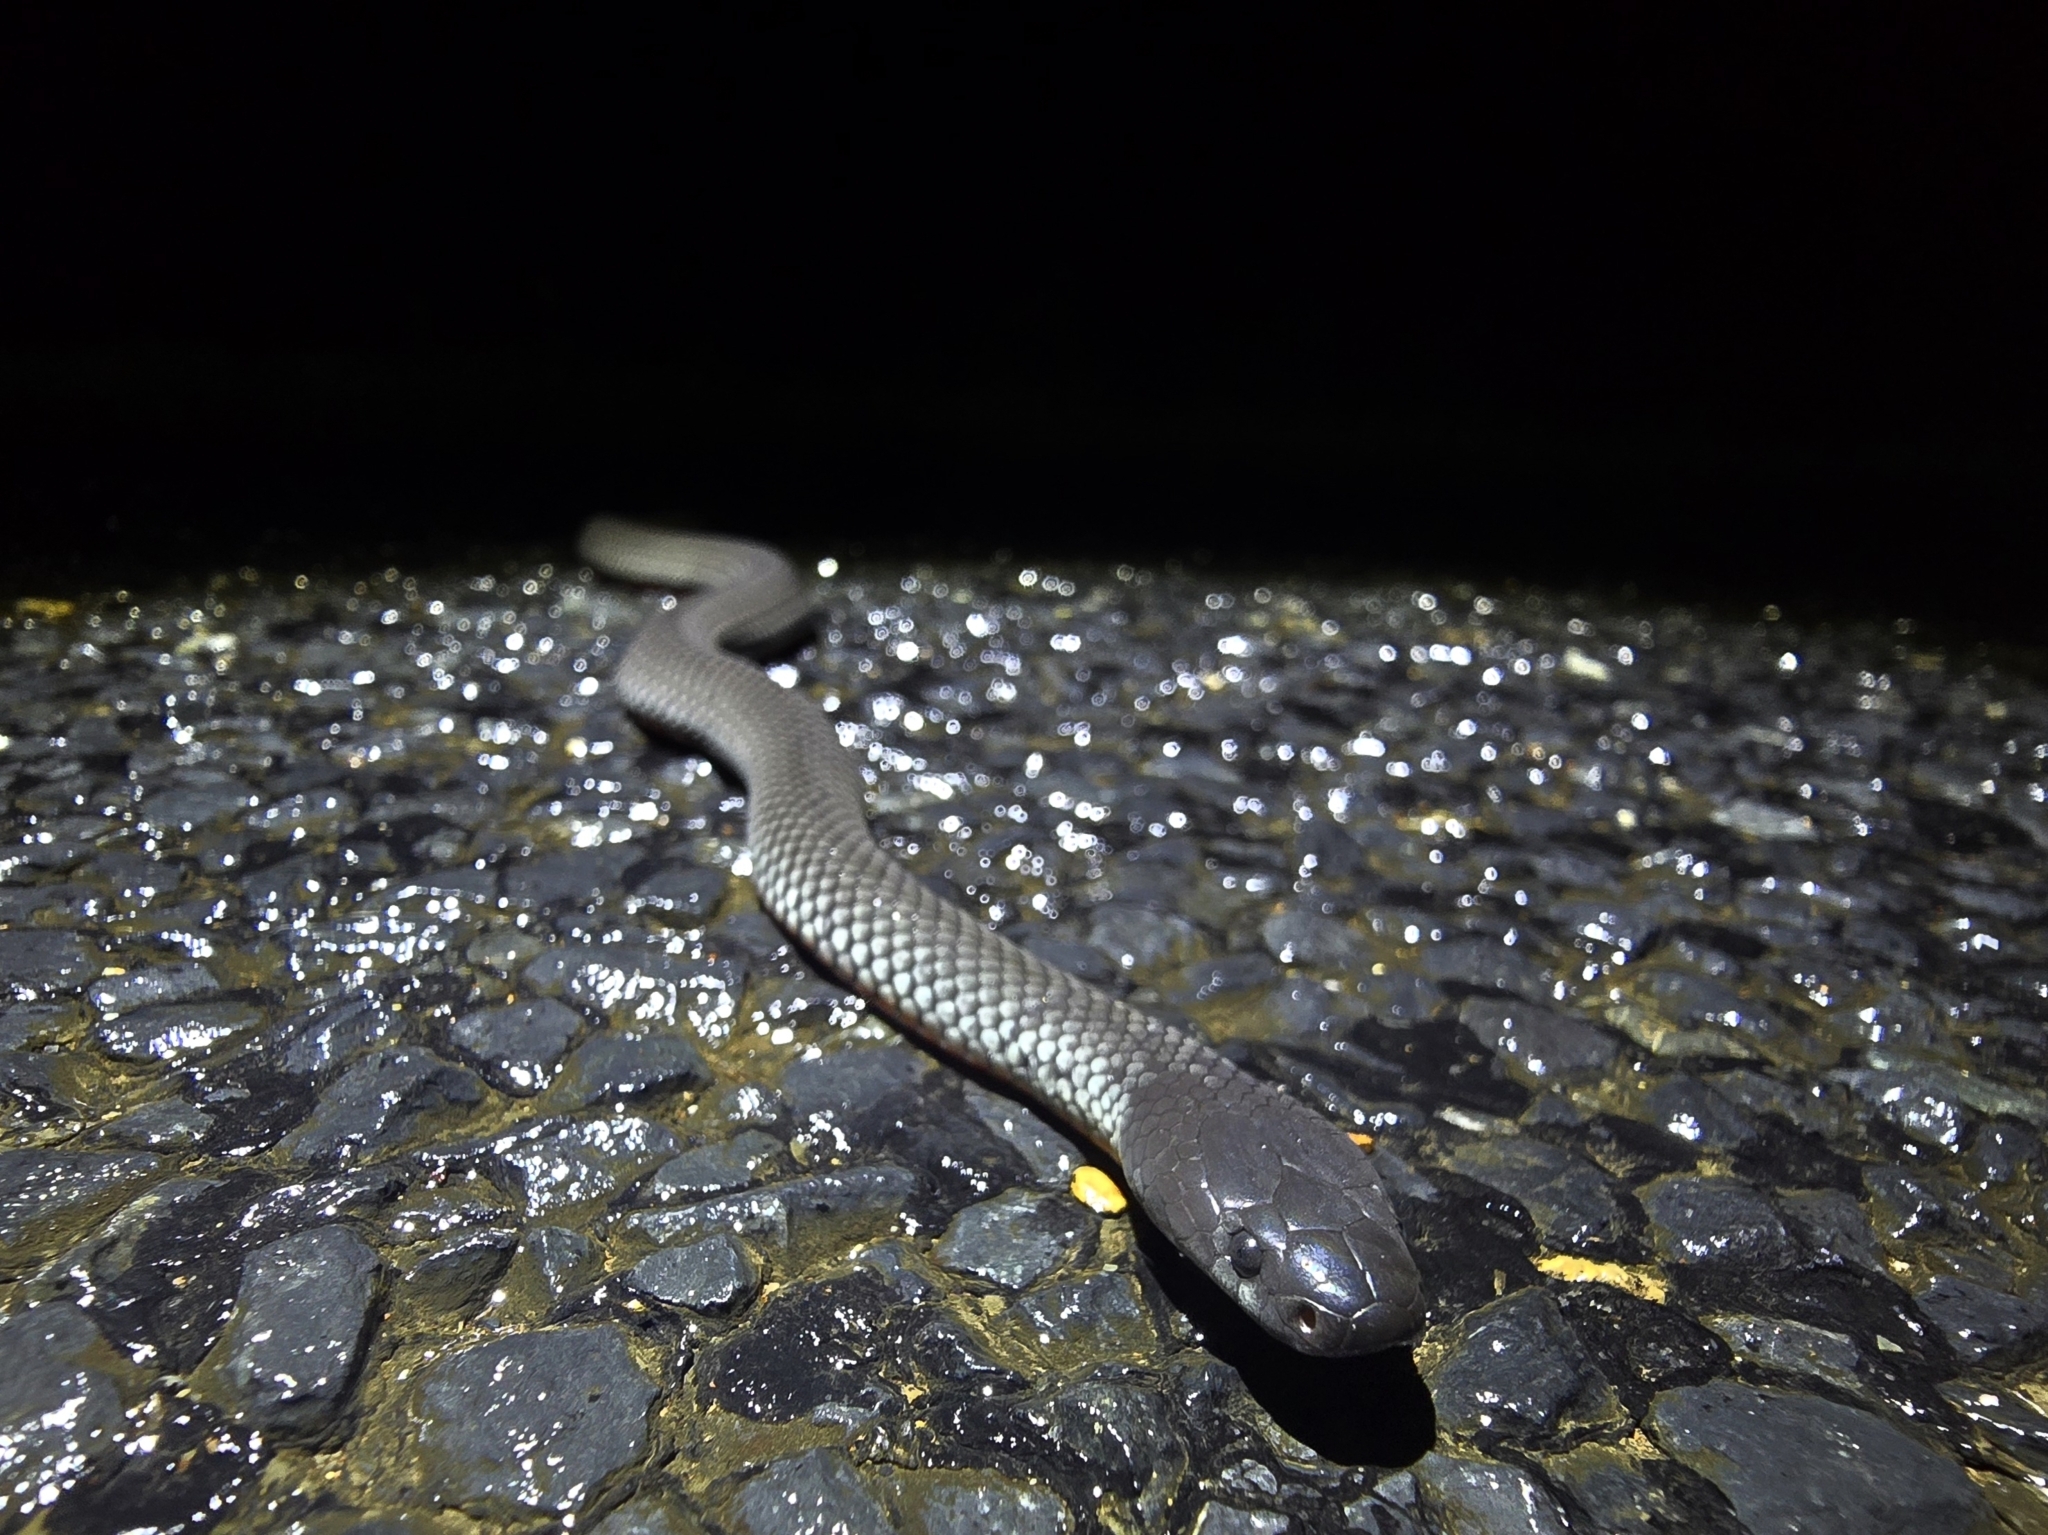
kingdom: Animalia
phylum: Chordata
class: Squamata
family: Elapidae
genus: Cryptophis
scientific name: Cryptophis nigrescens
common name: Eastern small-eyed snake
